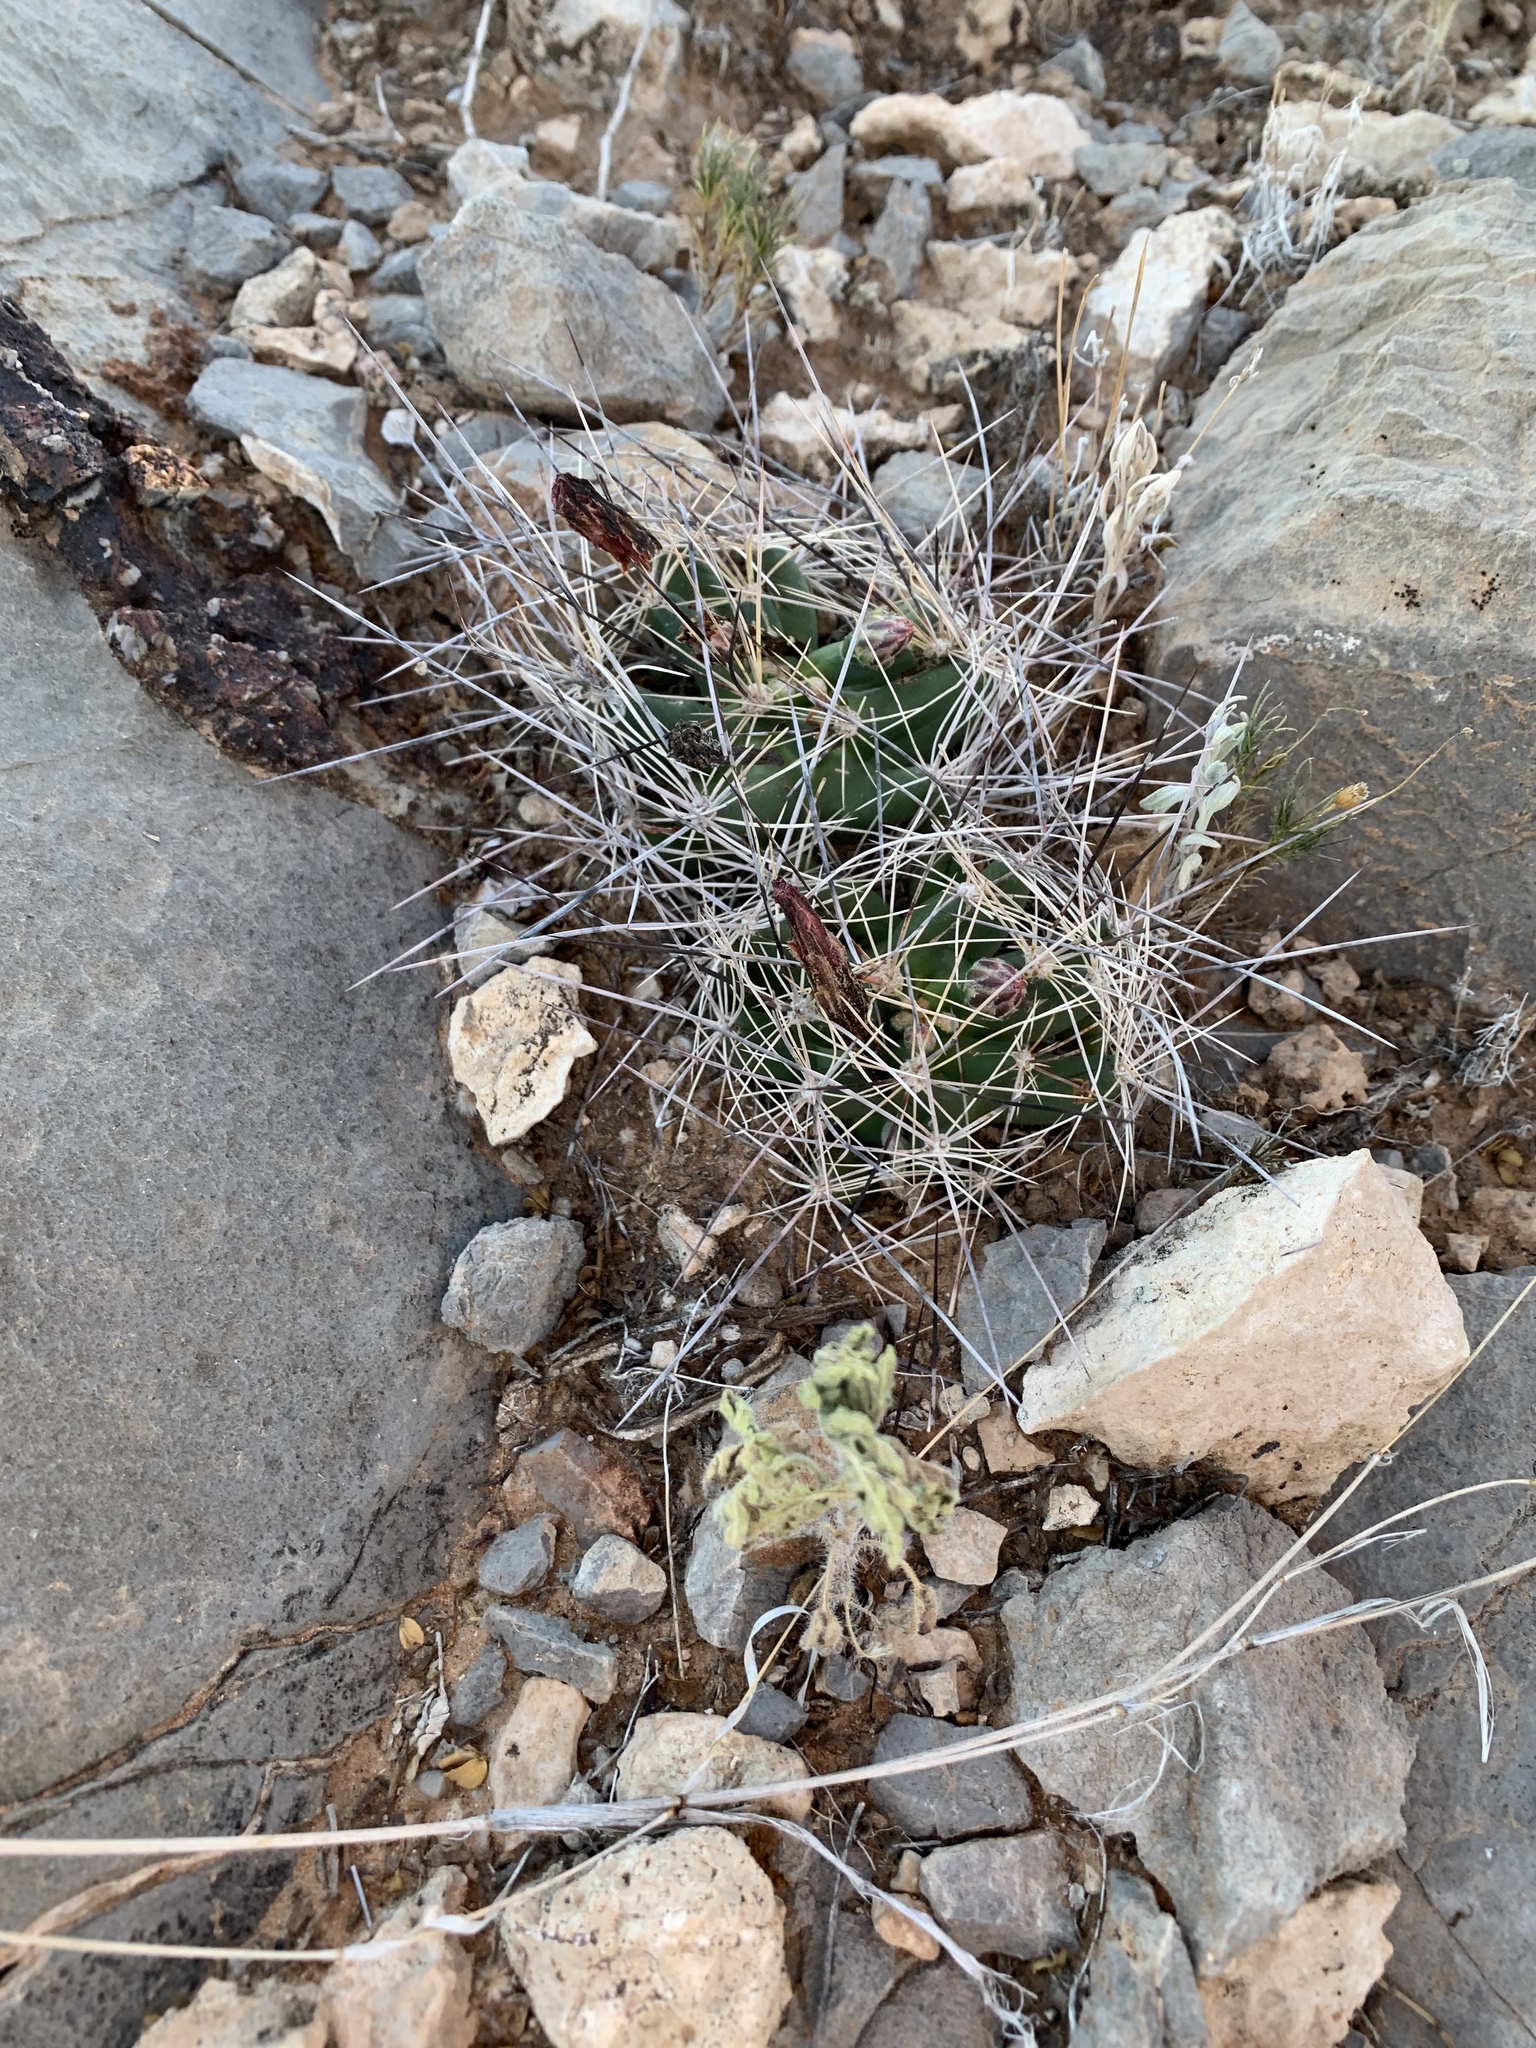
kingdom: Plantae
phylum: Tracheophyta
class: Magnoliopsida
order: Caryophyllales
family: Cactaceae
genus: Coryphantha
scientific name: Coryphantha macromeris
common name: Nipple beehive cactus
